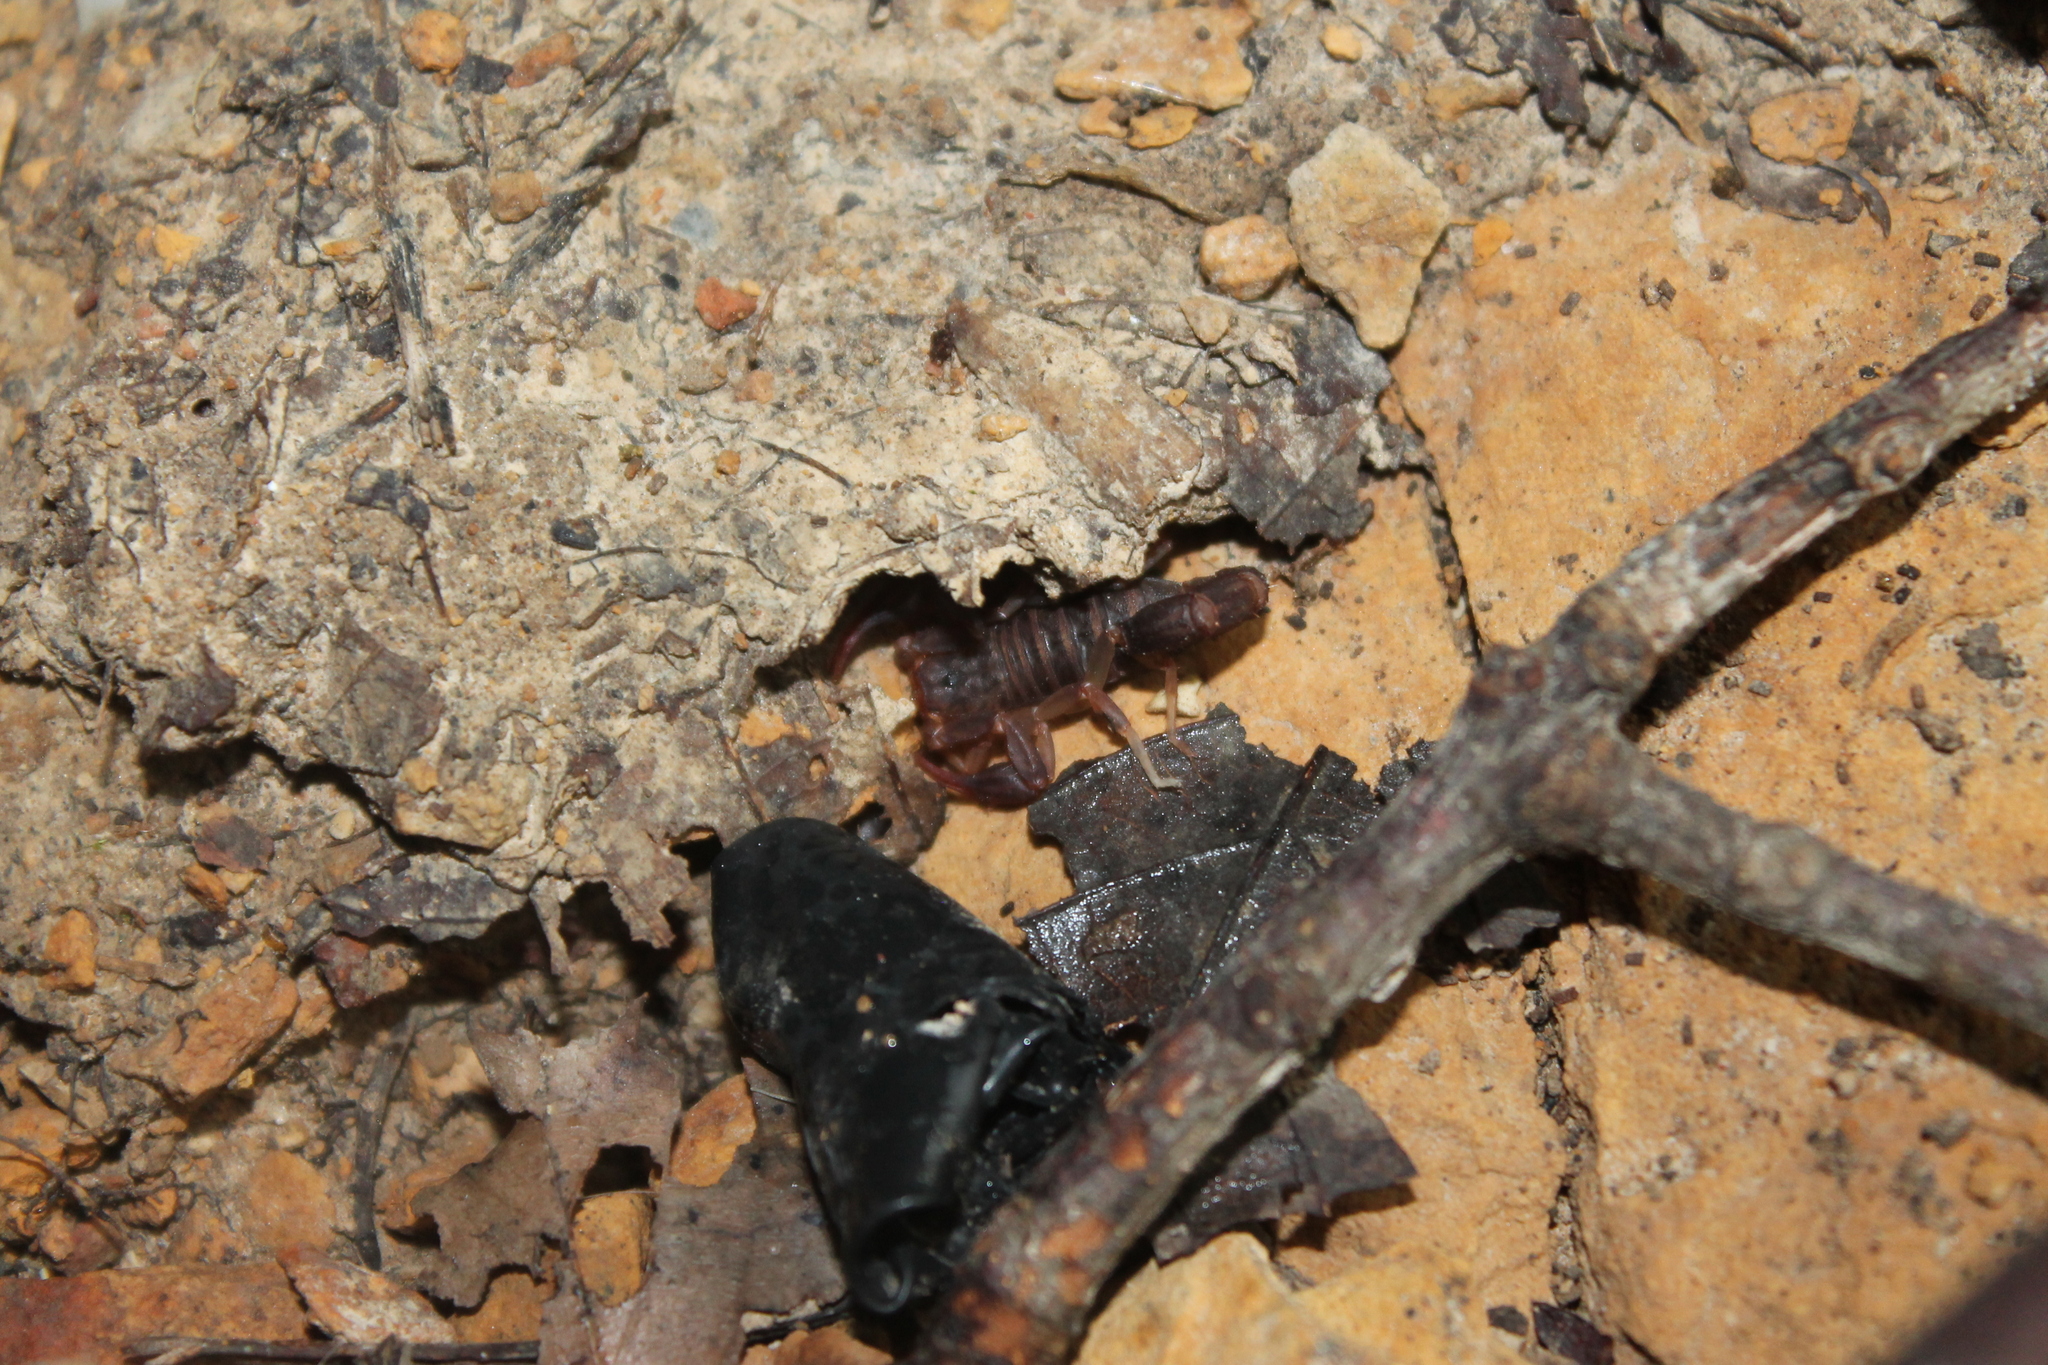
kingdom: Animalia
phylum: Arthropoda
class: Arachnida
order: Scorpiones
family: Vaejovidae
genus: Vaejovis
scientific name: Vaejovis carolinianus
